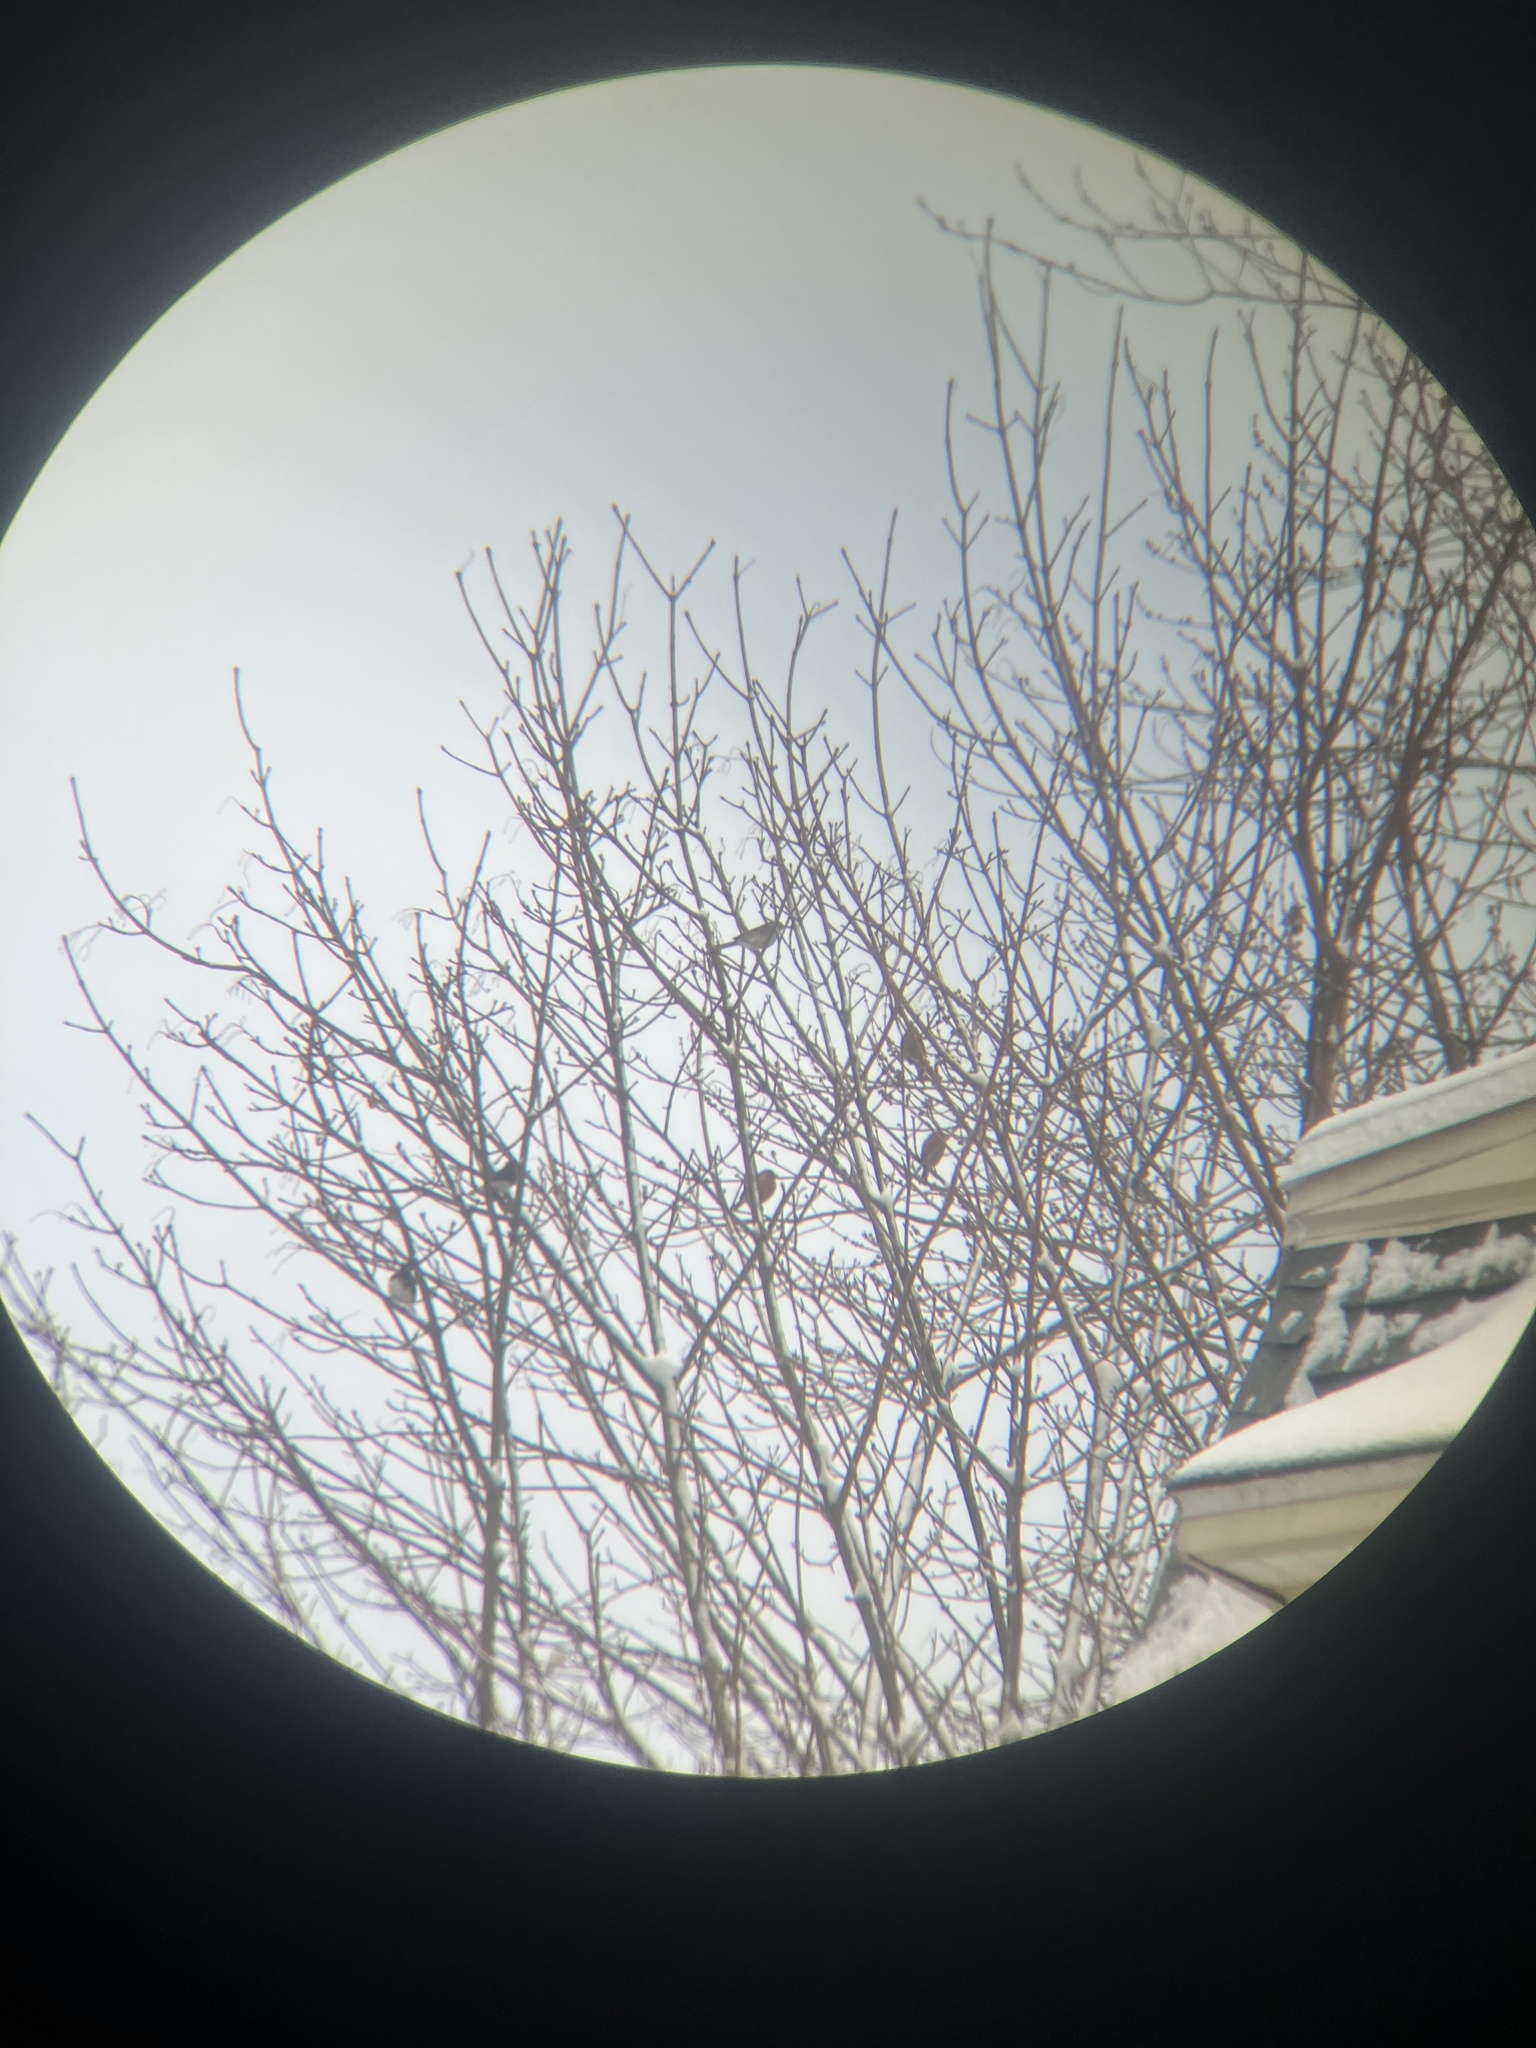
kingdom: Animalia
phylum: Chordata
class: Aves
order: Passeriformes
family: Fringillidae
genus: Haemorhous
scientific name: Haemorhous mexicanus
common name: House finch
